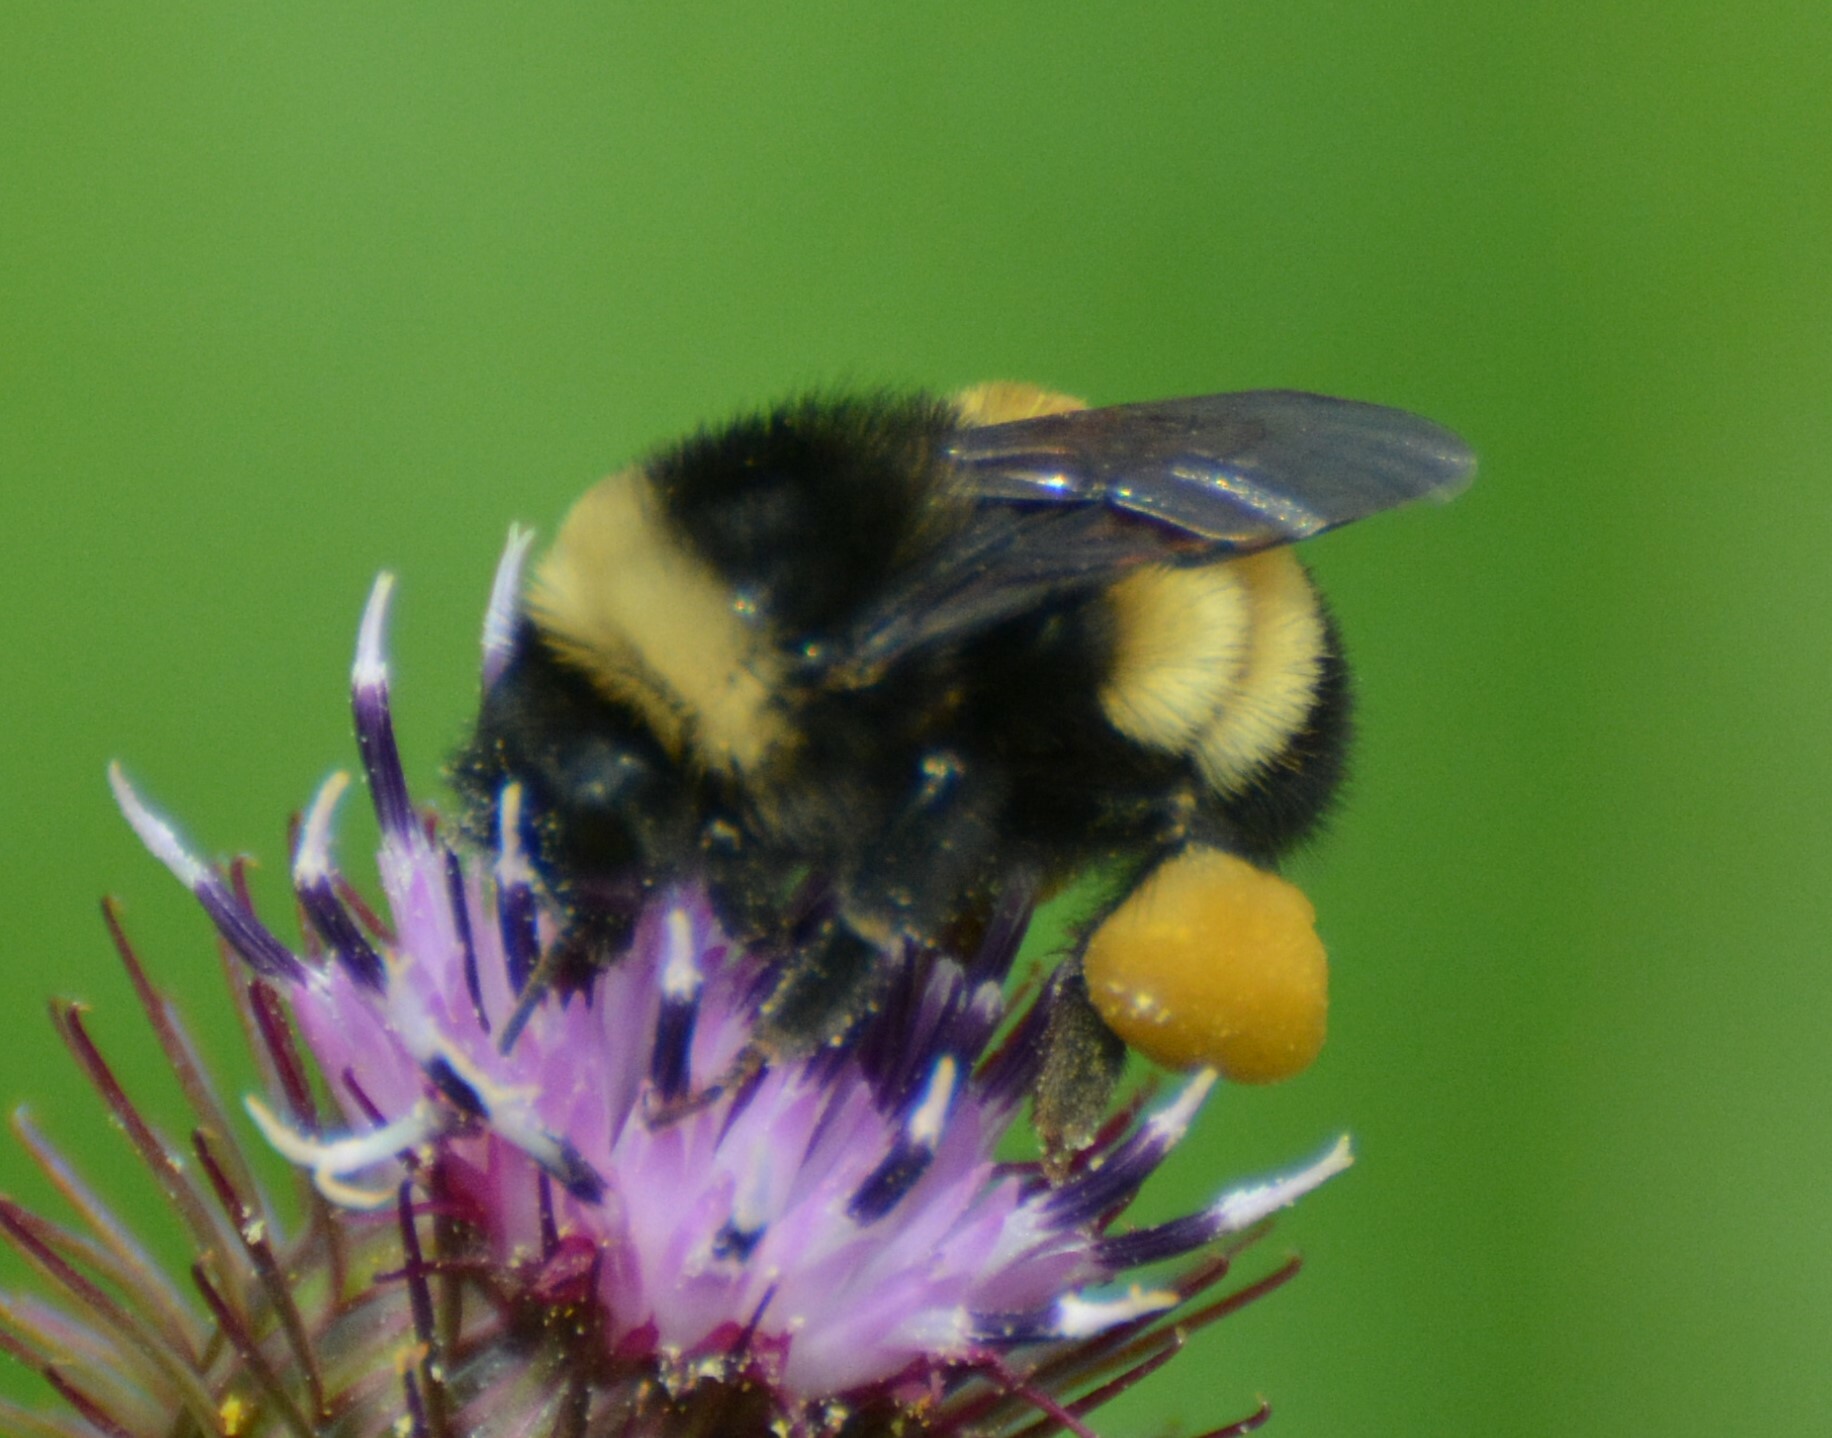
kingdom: Animalia
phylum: Arthropoda
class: Insecta
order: Hymenoptera
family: Apidae
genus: Bombus
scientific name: Bombus terricola
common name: Yellow-banded bumble bee
